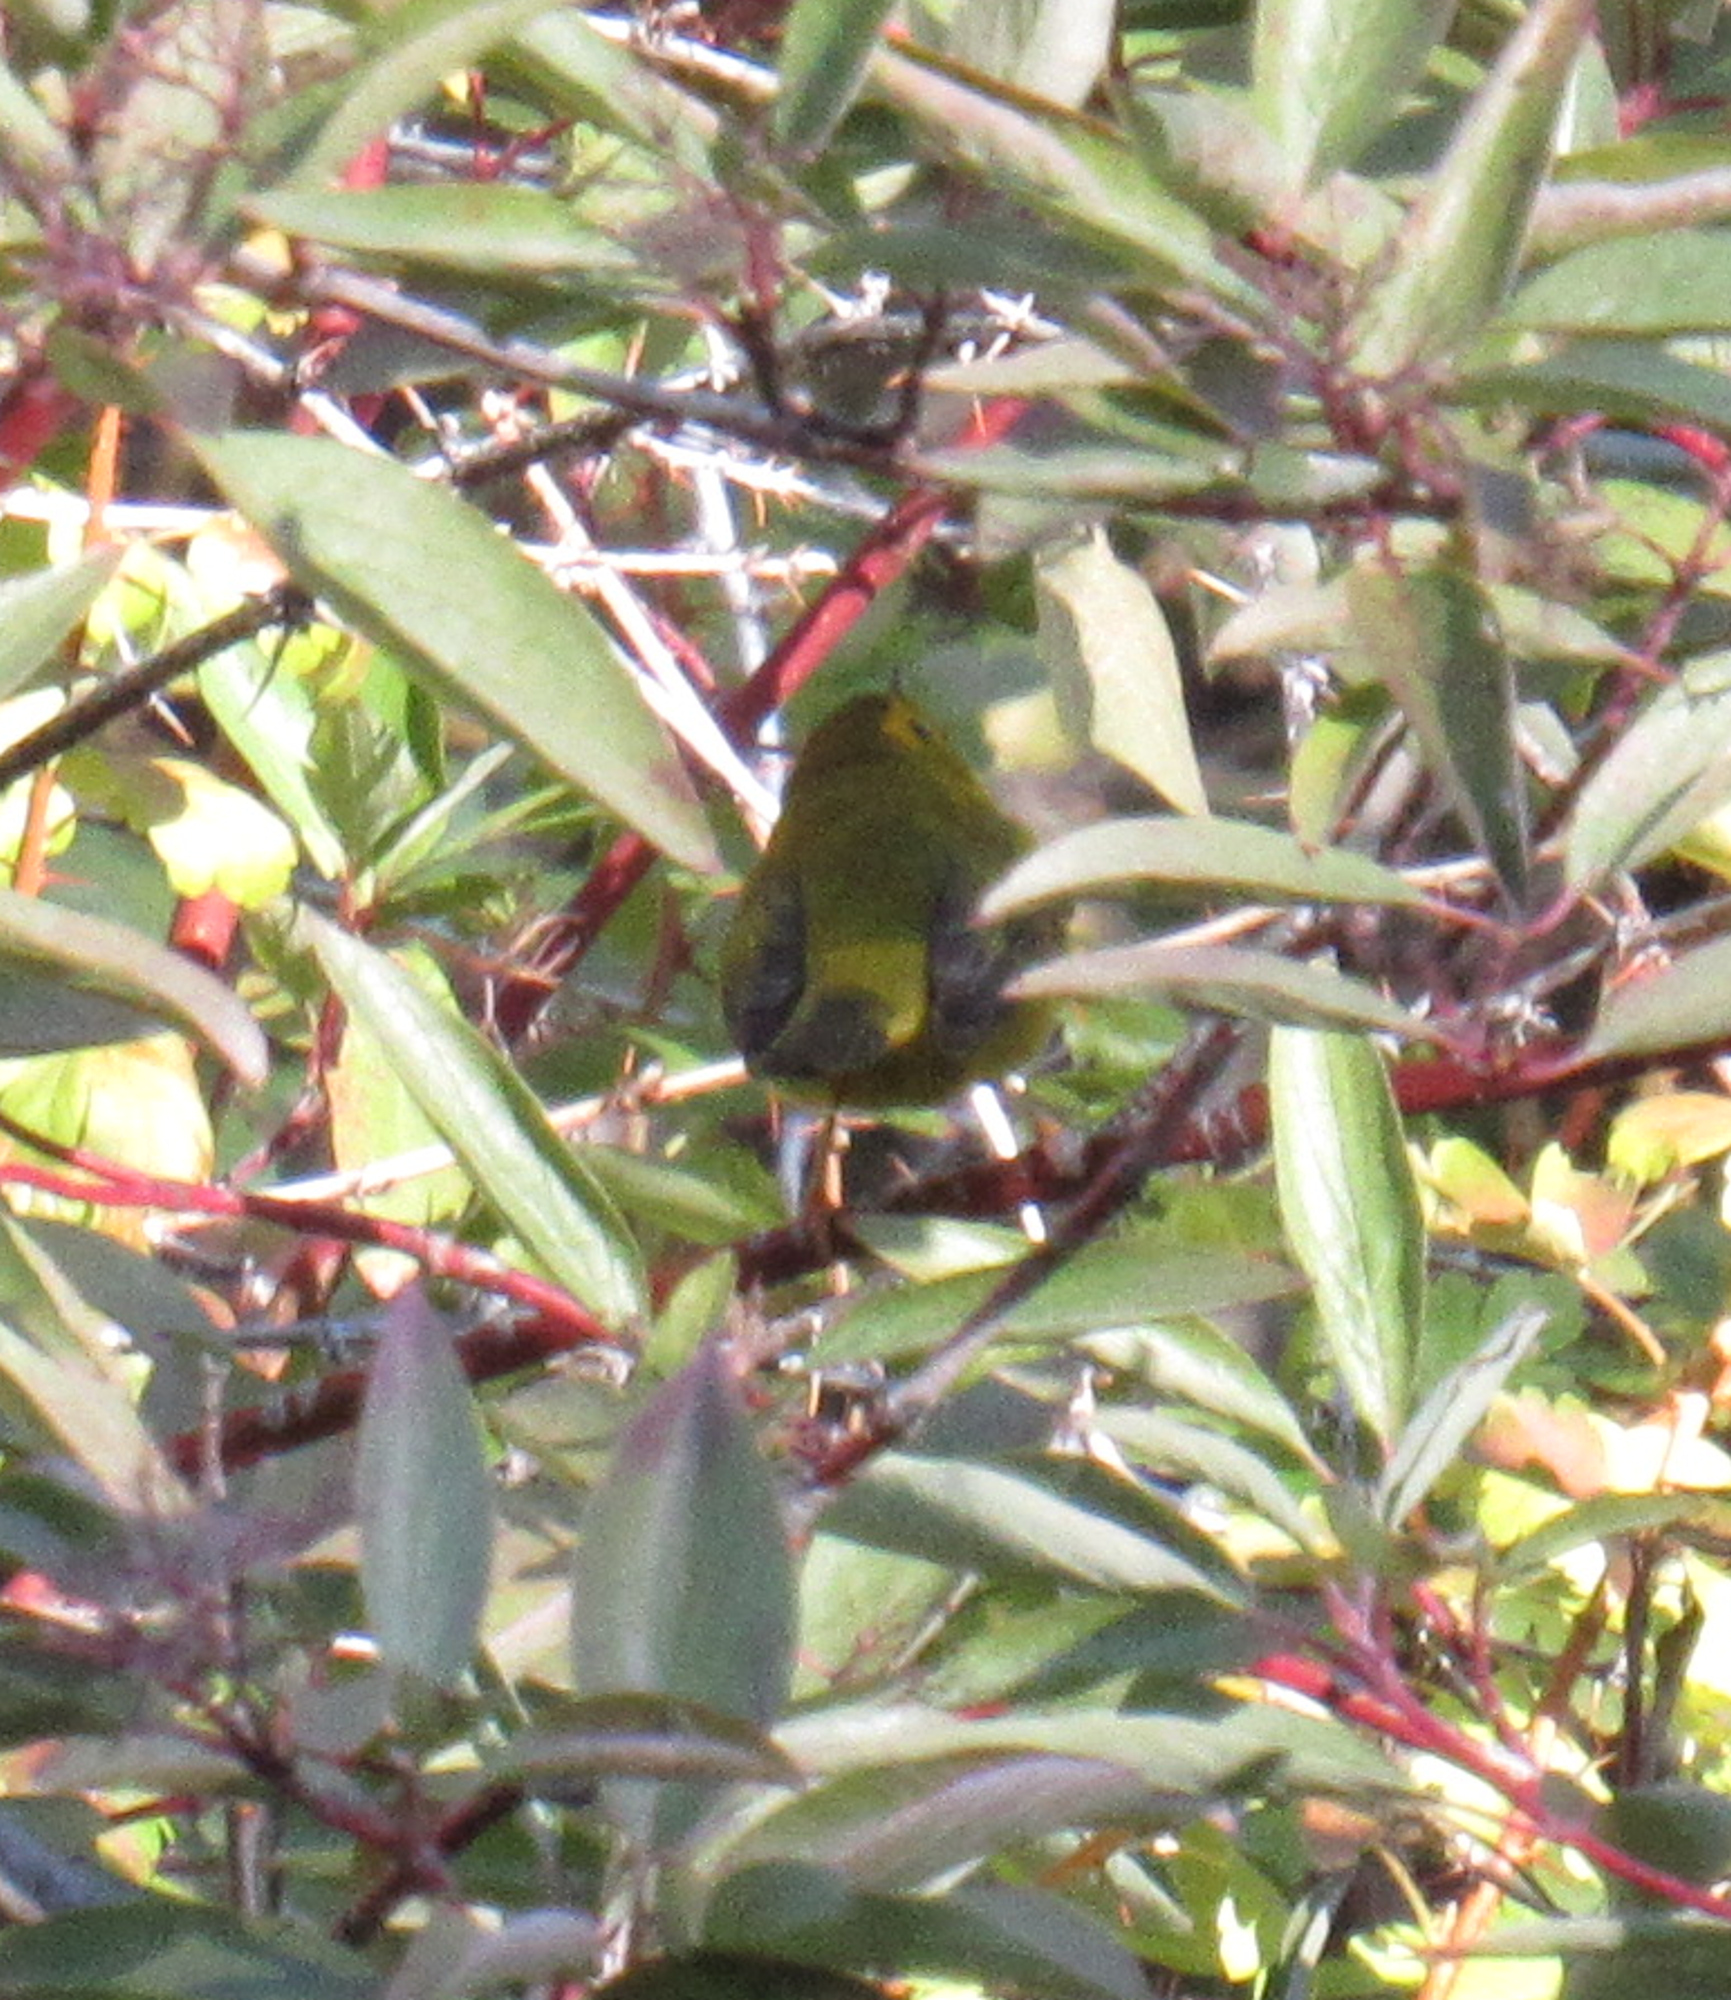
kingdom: Animalia
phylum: Chordata
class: Aves
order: Passeriformes
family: Parulidae
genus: Cardellina
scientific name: Cardellina pusilla
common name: Wilson's warbler
